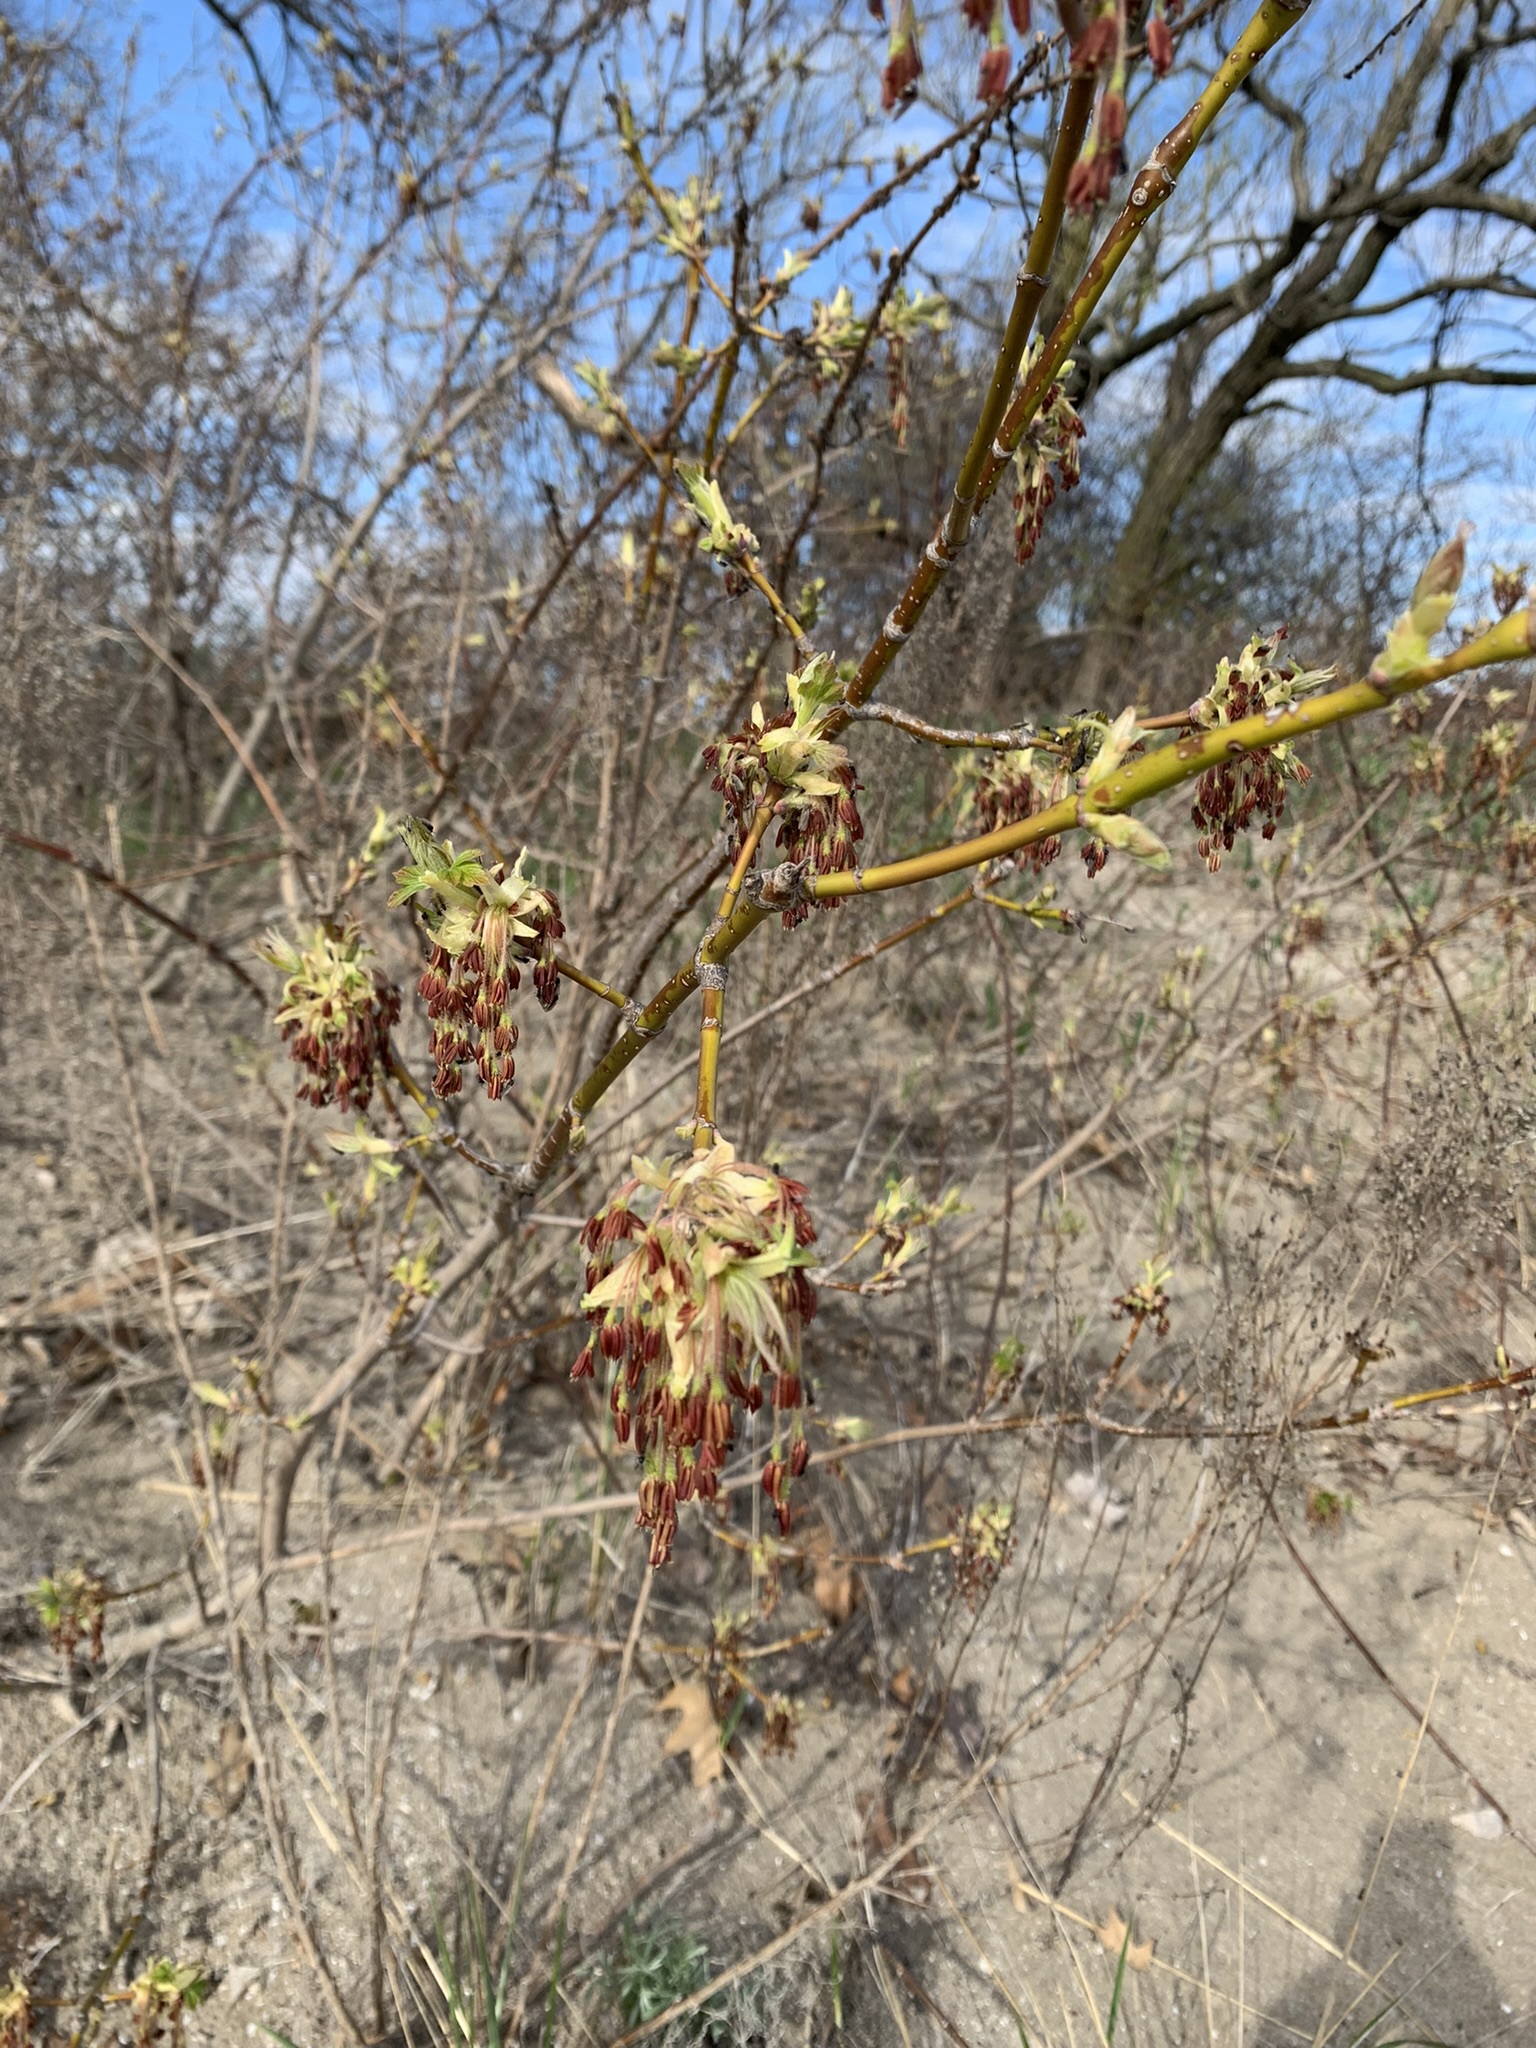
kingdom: Plantae
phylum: Tracheophyta
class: Magnoliopsida
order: Sapindales
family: Sapindaceae
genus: Acer
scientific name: Acer negundo
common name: Ashleaf maple
